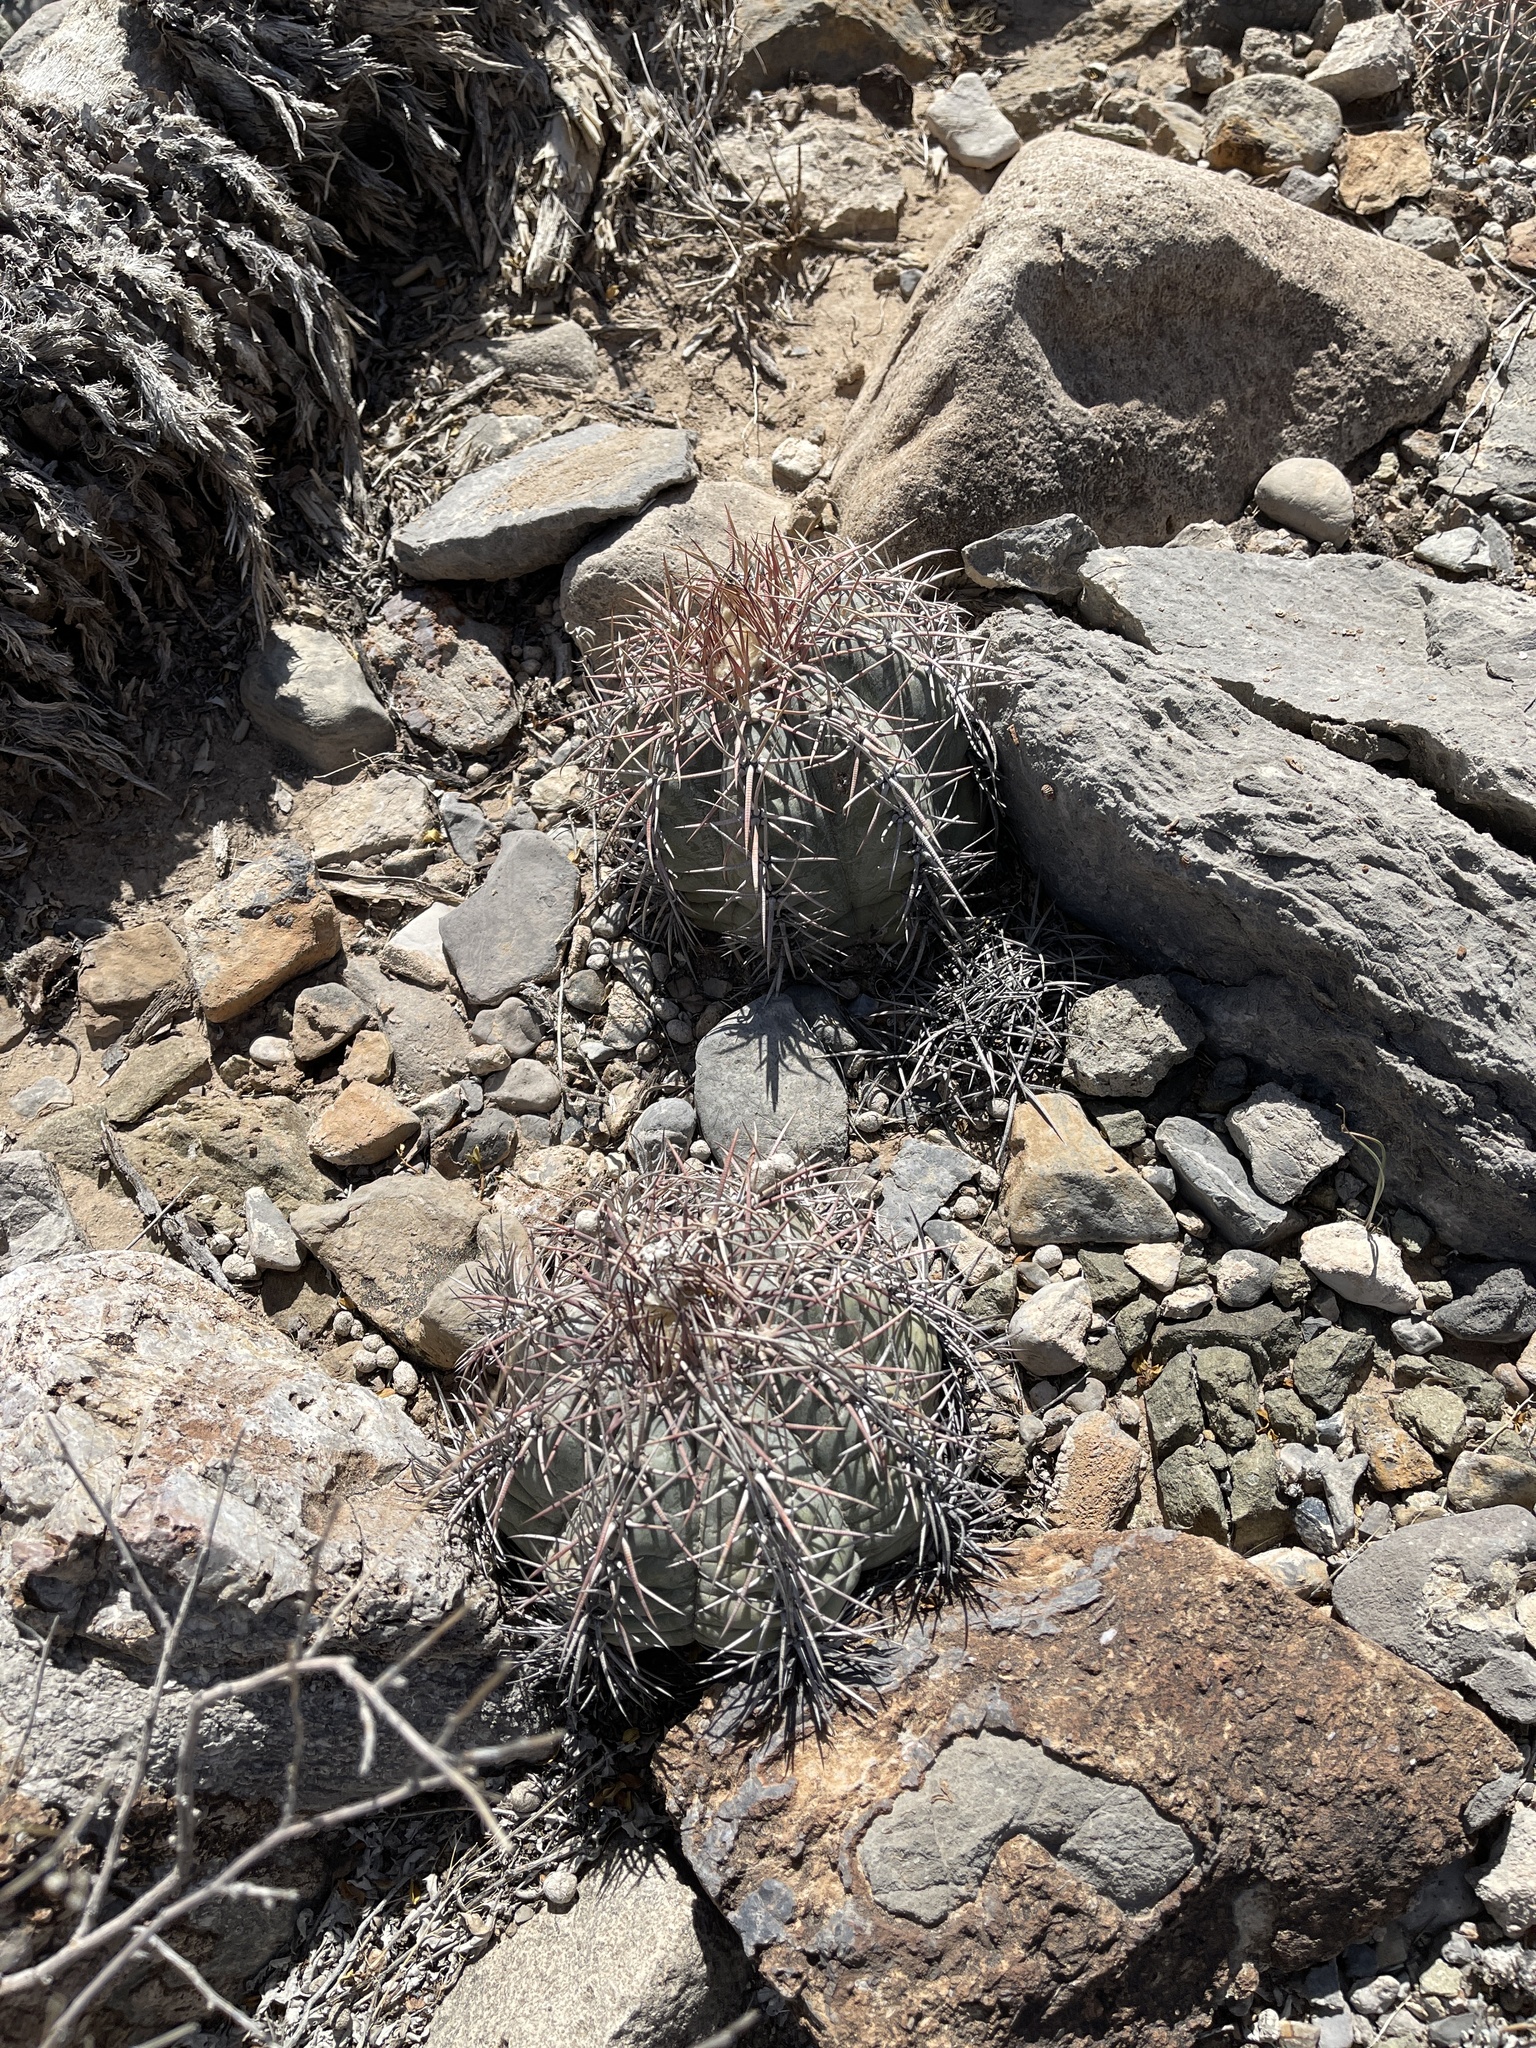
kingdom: Plantae
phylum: Tracheophyta
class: Magnoliopsida
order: Caryophyllales
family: Cactaceae
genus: Echinocactus
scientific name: Echinocactus horizonthalonius
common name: Devilshead
